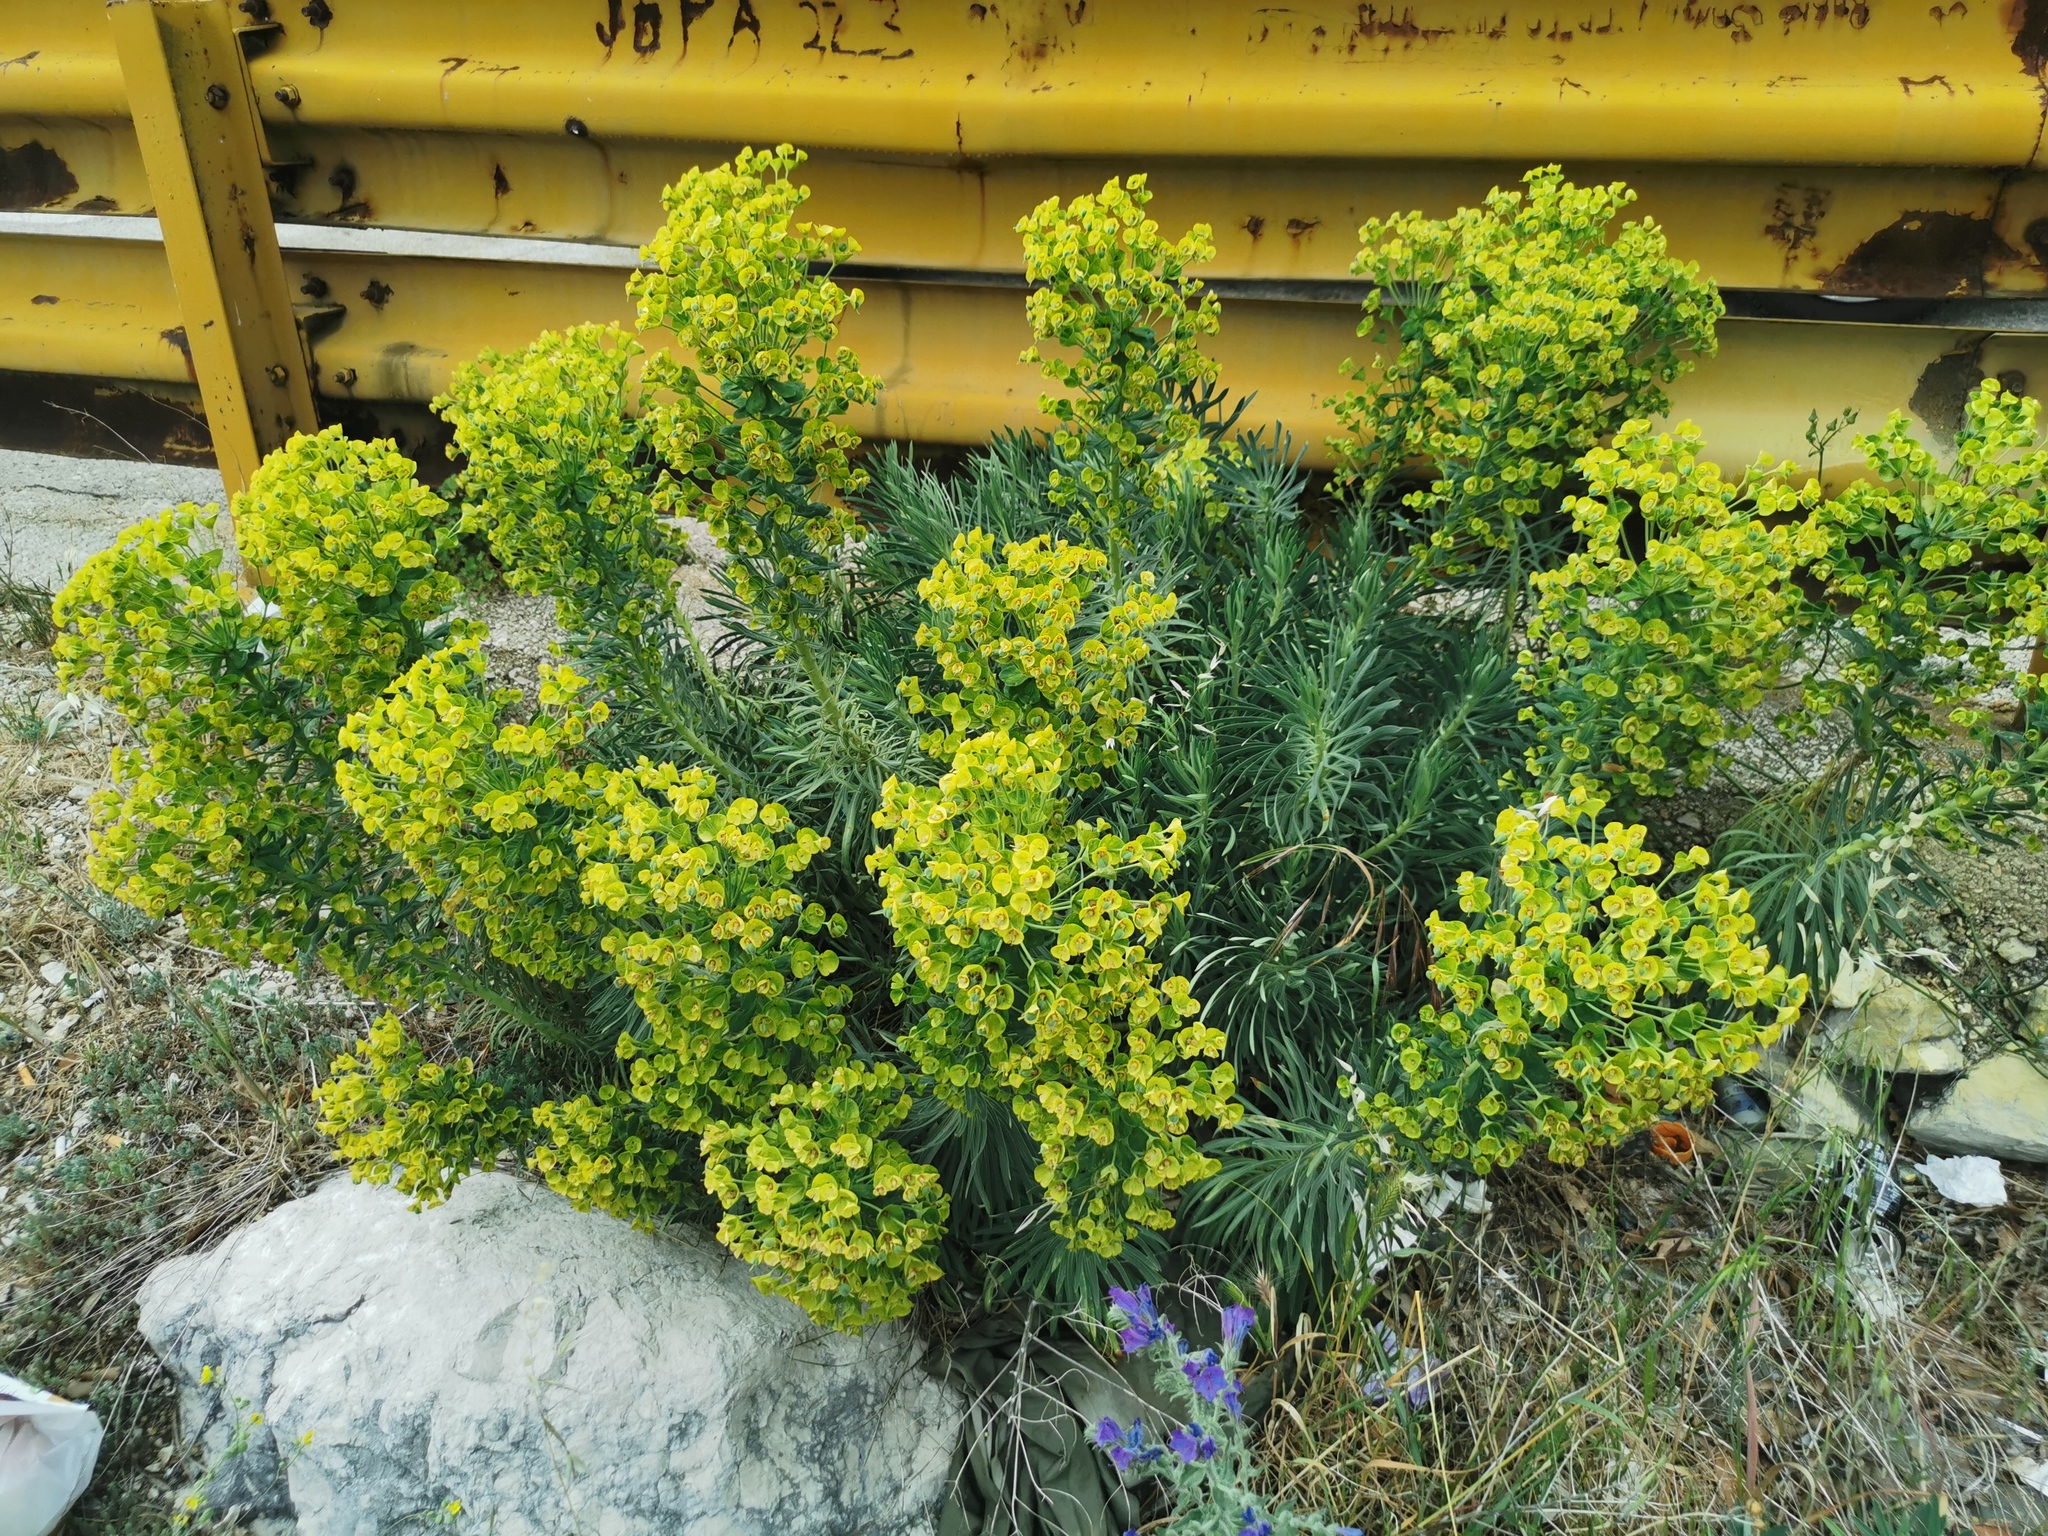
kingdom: Plantae
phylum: Tracheophyta
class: Magnoliopsida
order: Malpighiales
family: Euphorbiaceae
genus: Euphorbia
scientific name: Euphorbia characias
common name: Mediterranean spurge
